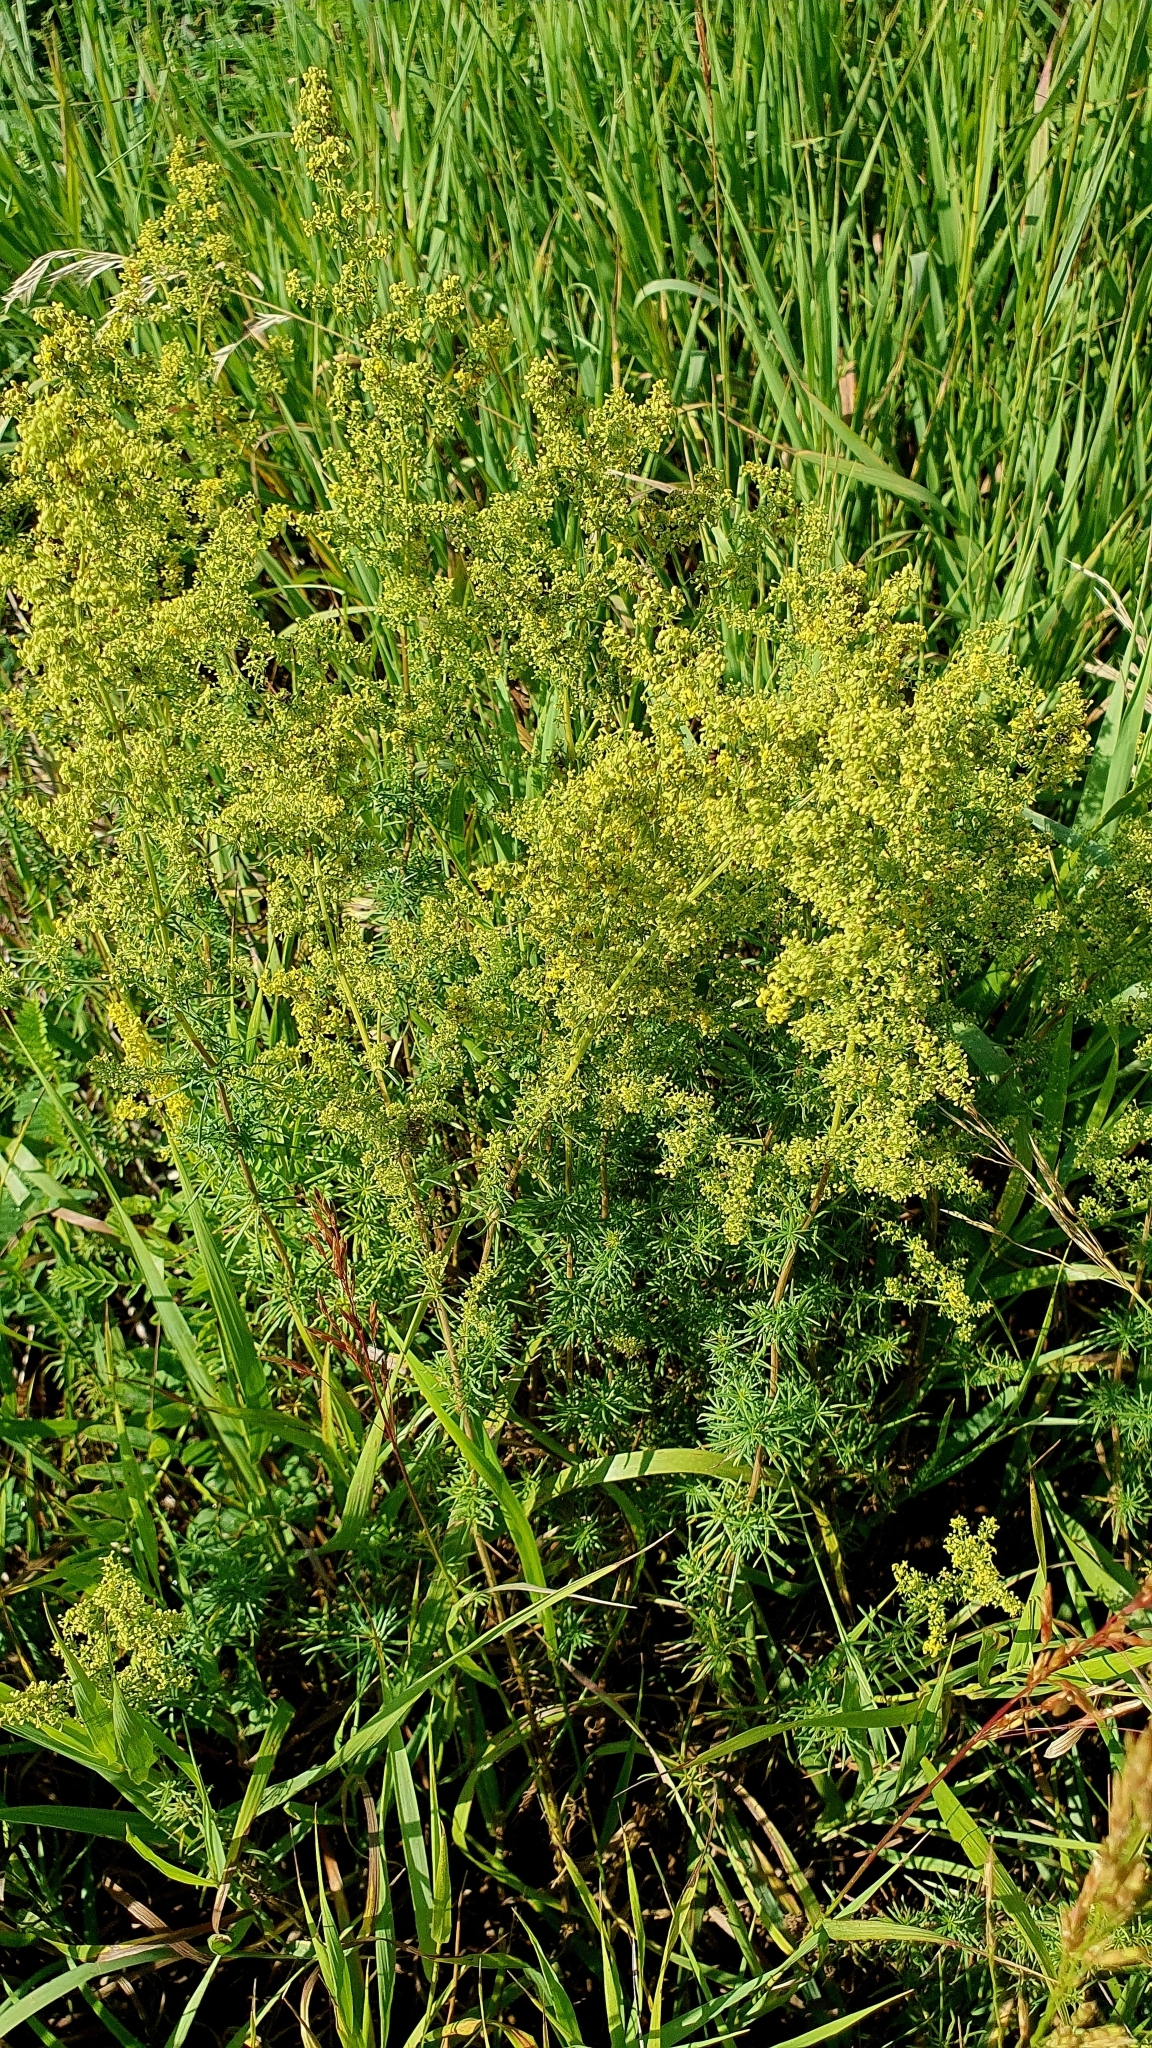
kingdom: Plantae
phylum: Tracheophyta
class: Magnoliopsida
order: Gentianales
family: Rubiaceae
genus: Galium
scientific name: Galium verum
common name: Lady's bedstraw
